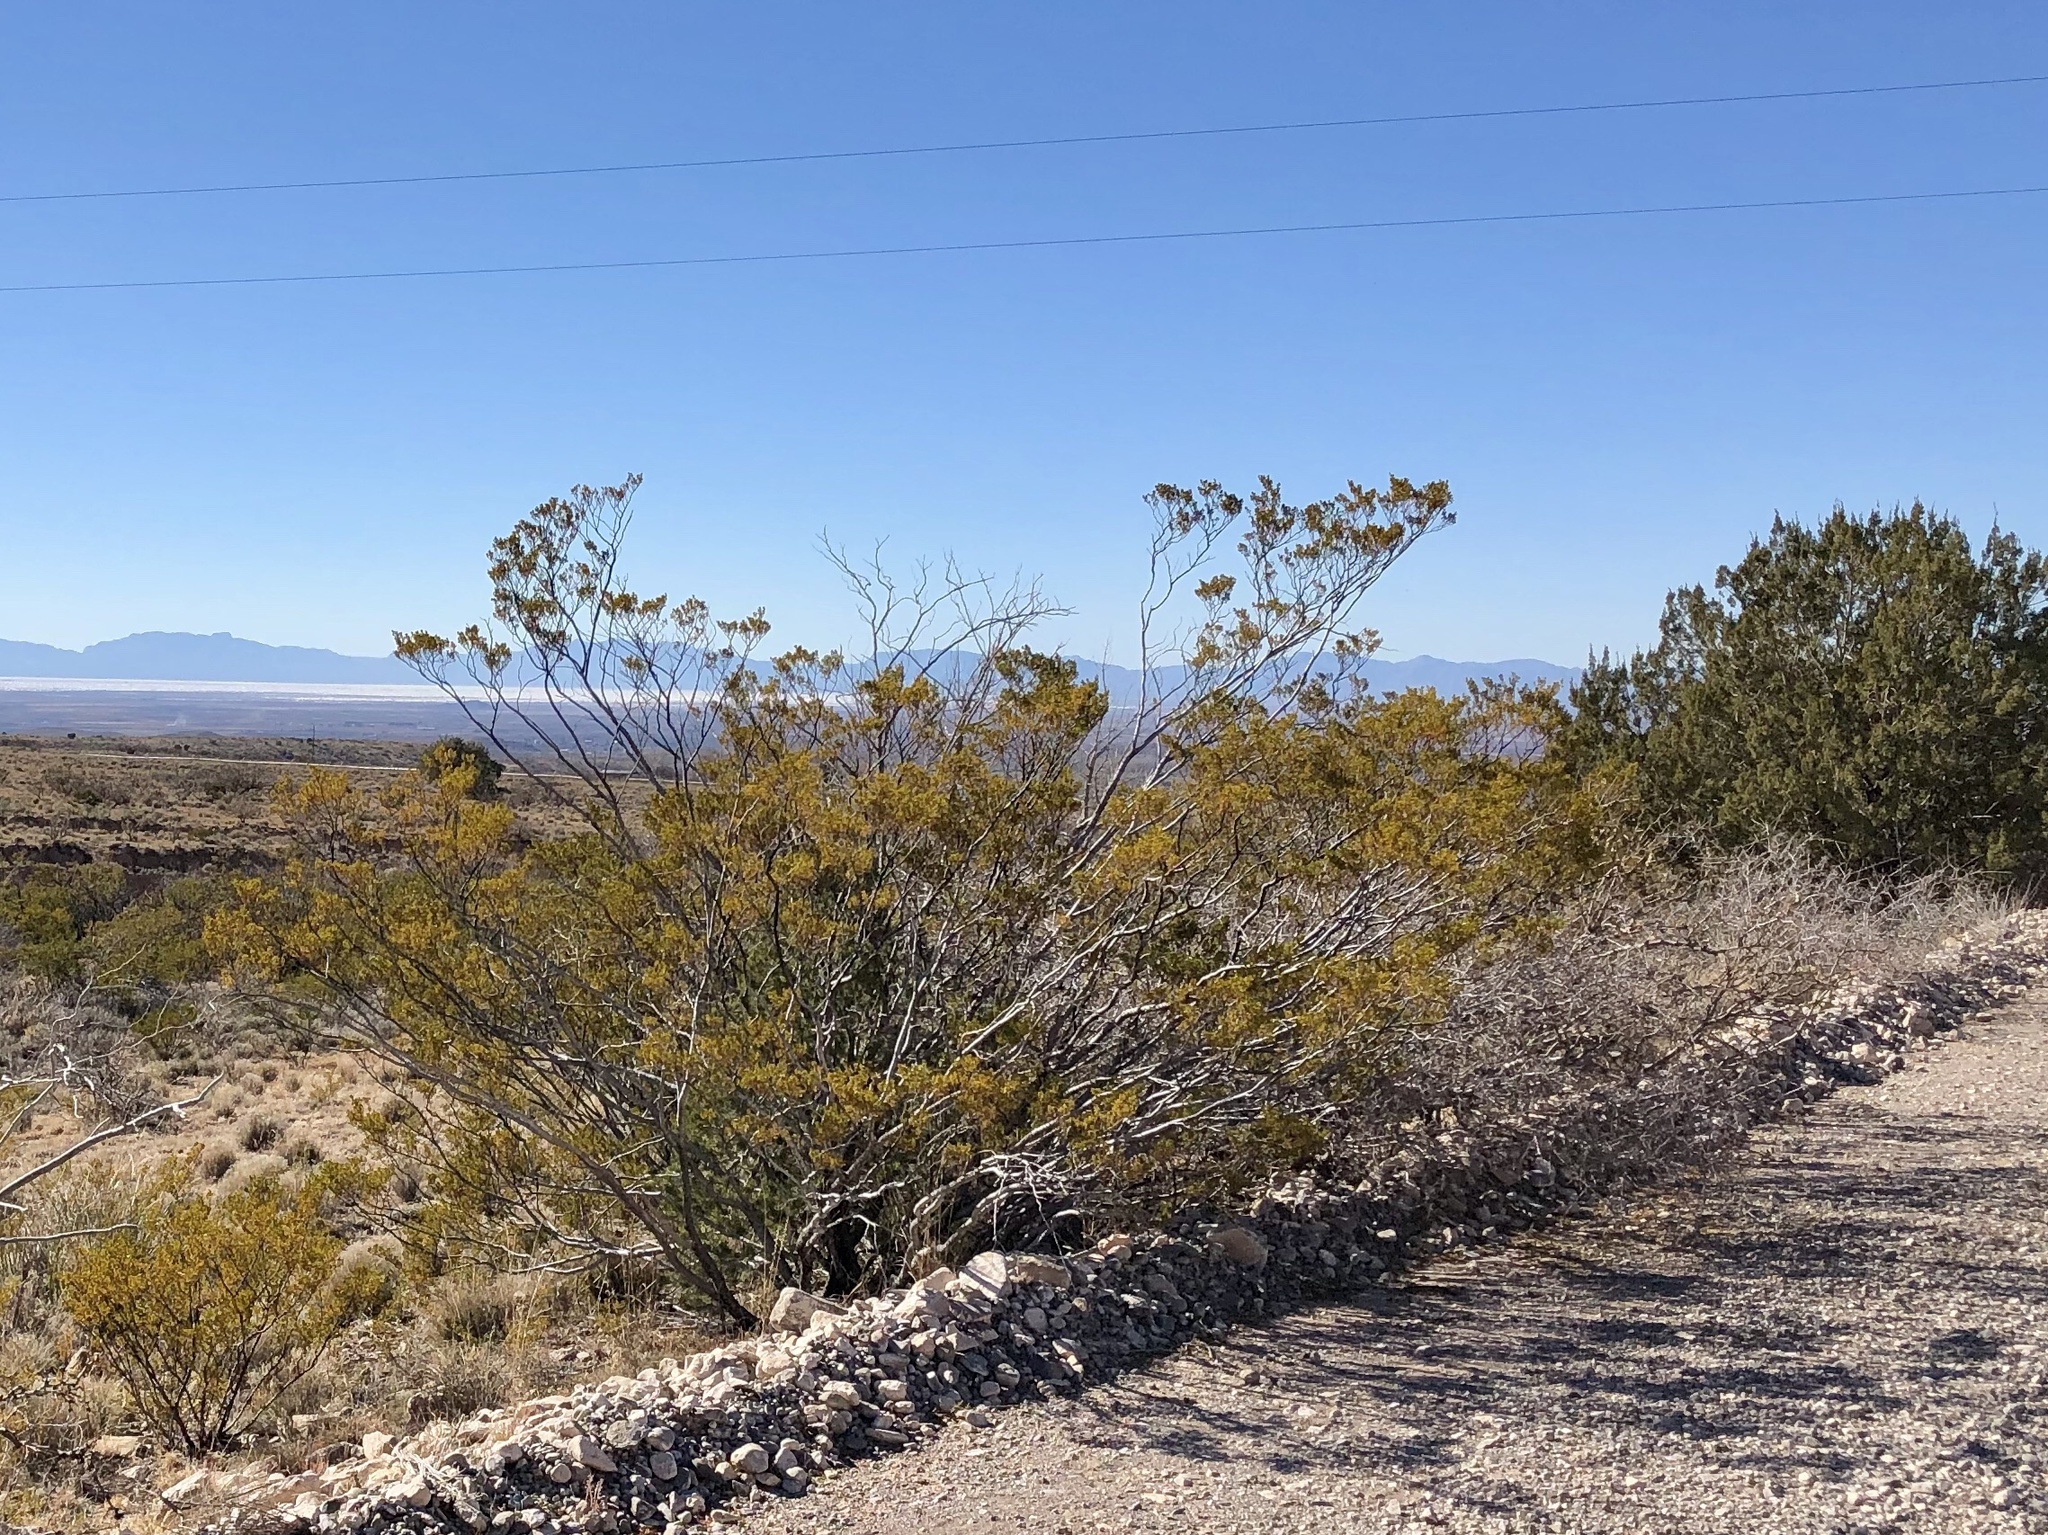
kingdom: Plantae
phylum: Tracheophyta
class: Magnoliopsida
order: Zygophyllales
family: Zygophyllaceae
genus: Larrea
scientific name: Larrea tridentata
